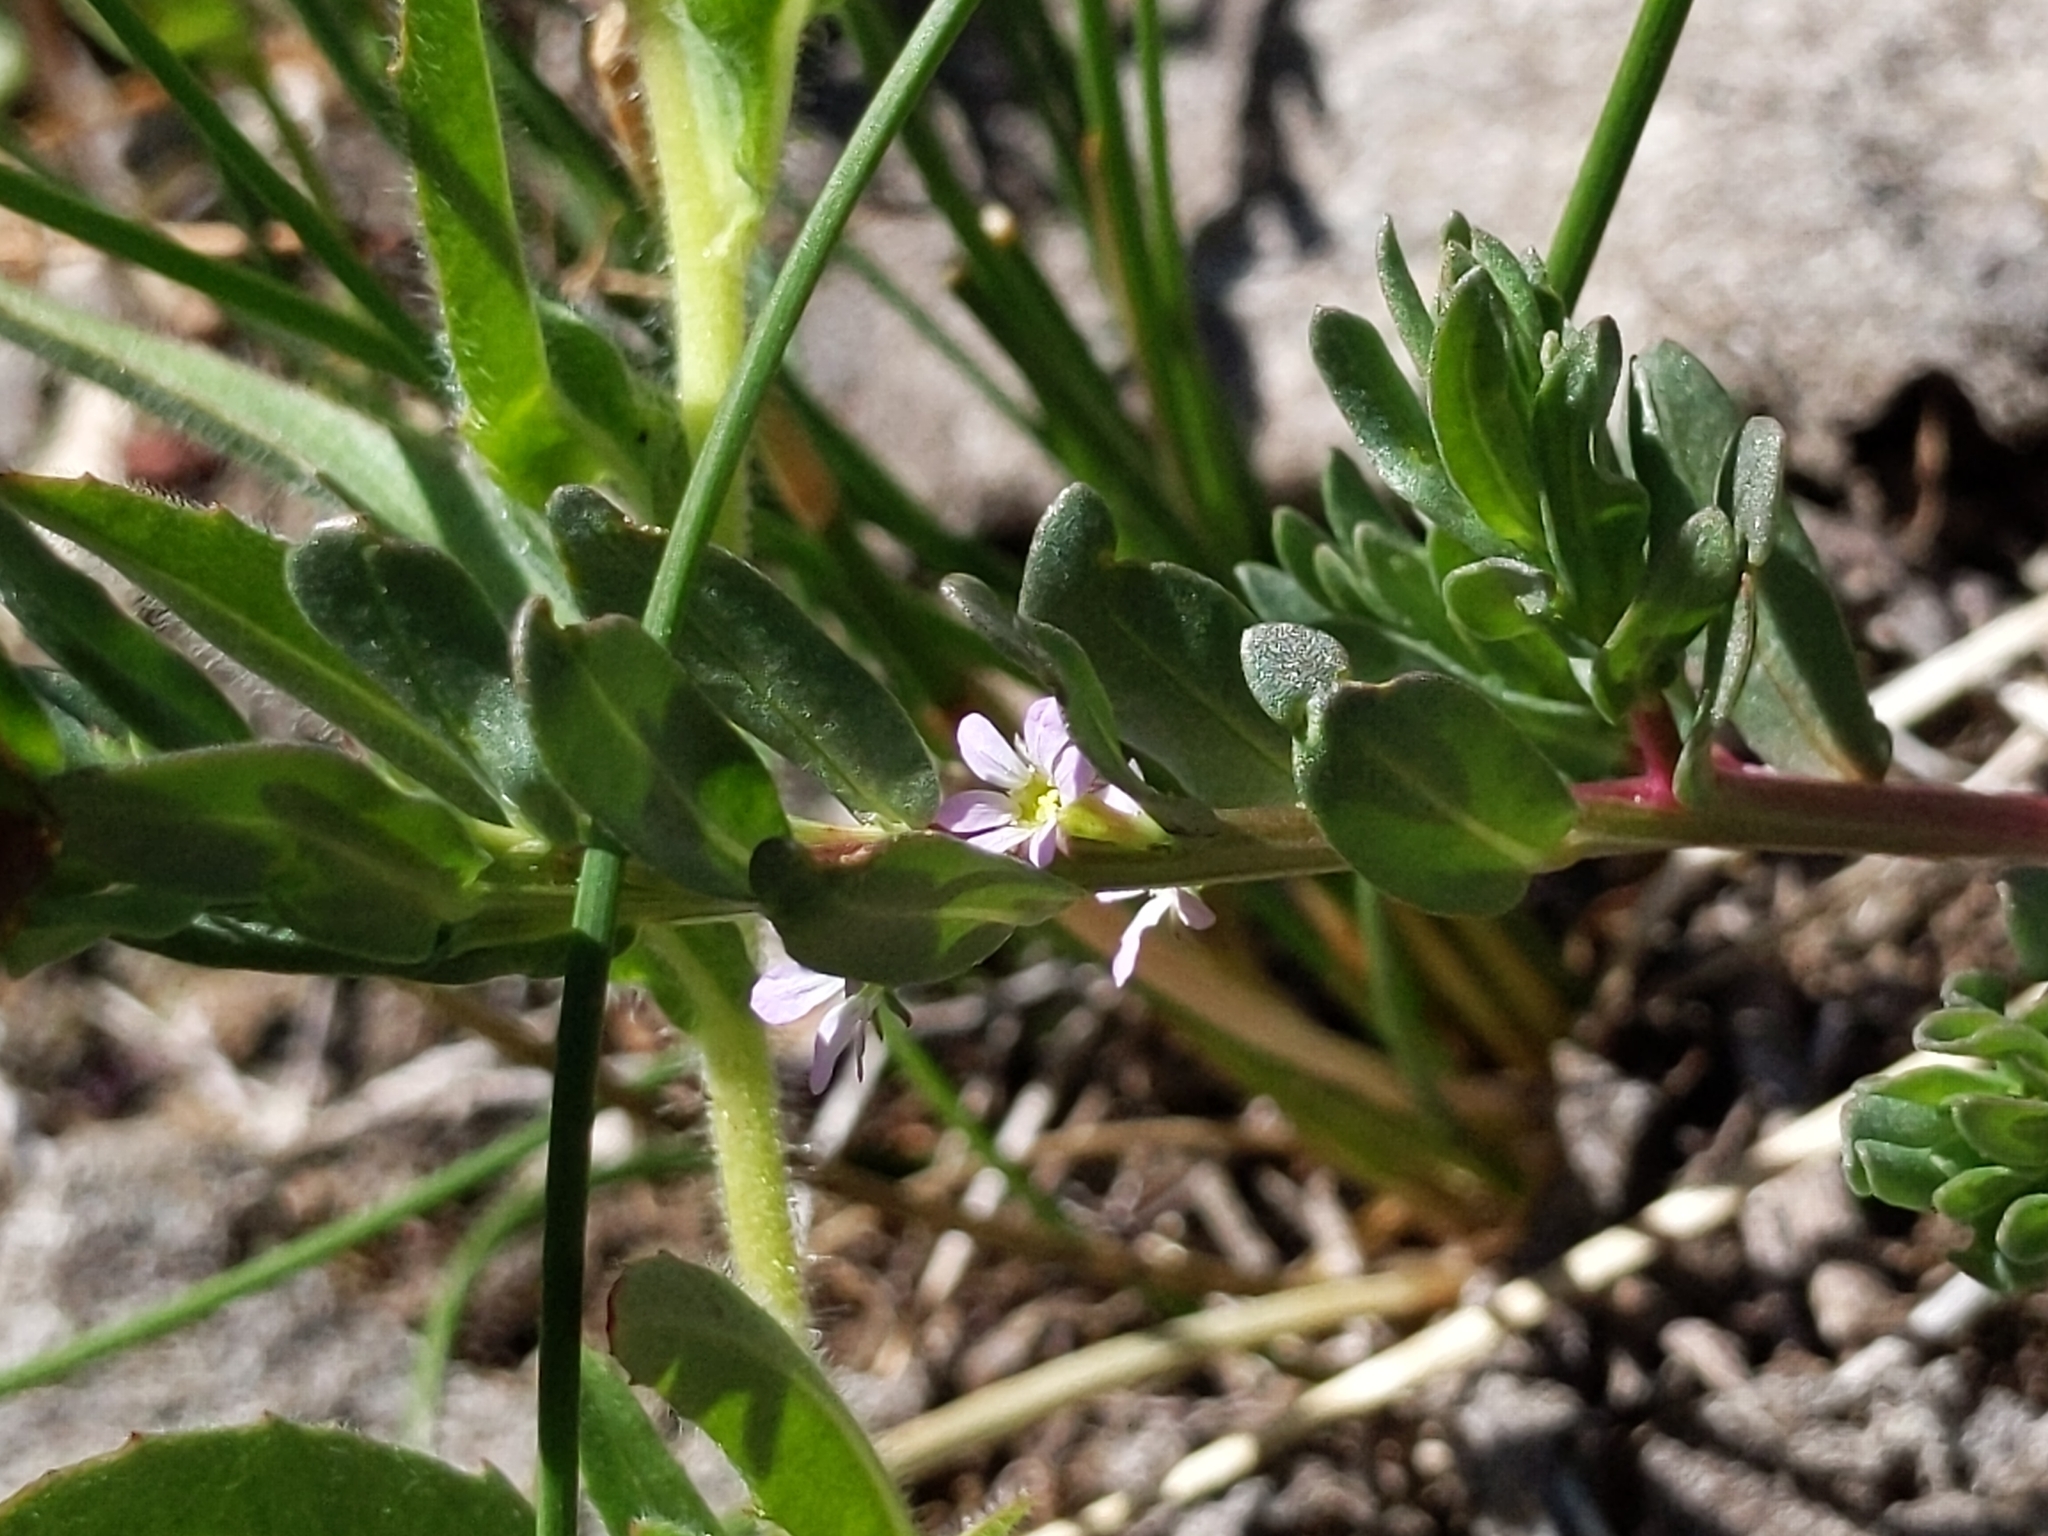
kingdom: Plantae
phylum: Tracheophyta
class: Magnoliopsida
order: Myrtales
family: Lythraceae
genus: Lythrum
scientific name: Lythrum hyssopifolia
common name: Grass-poly
